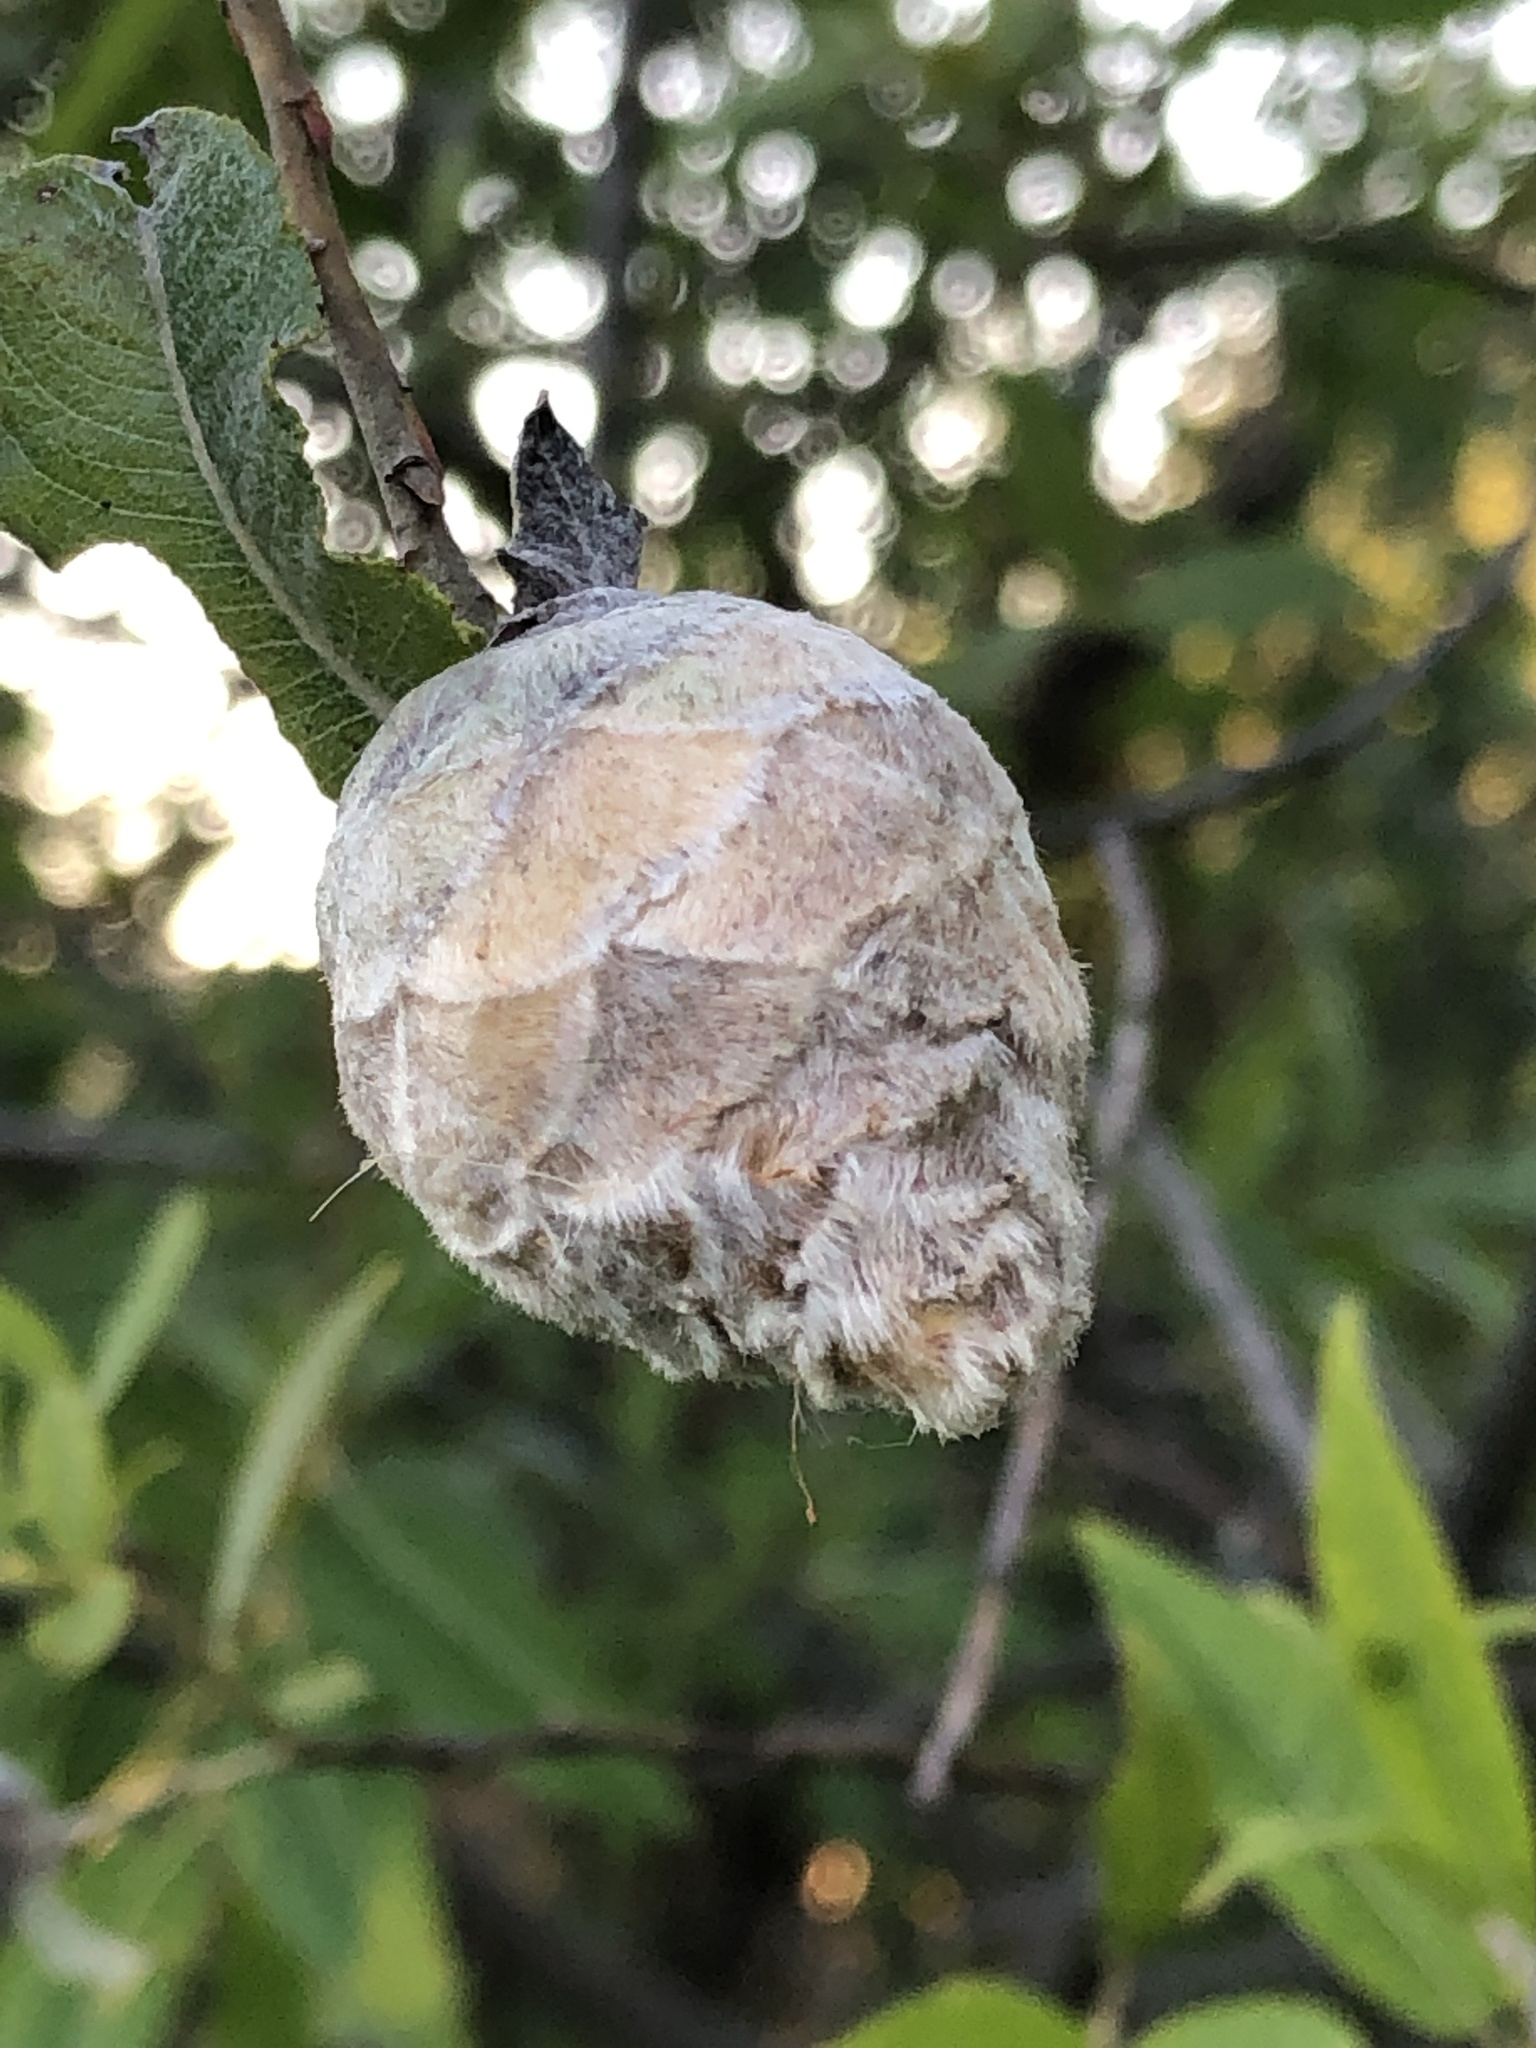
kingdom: Animalia
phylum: Arthropoda
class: Insecta
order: Diptera
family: Cecidomyiidae
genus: Rabdophaga
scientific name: Rabdophaga strobiloides
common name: Willow pinecone gall midge
